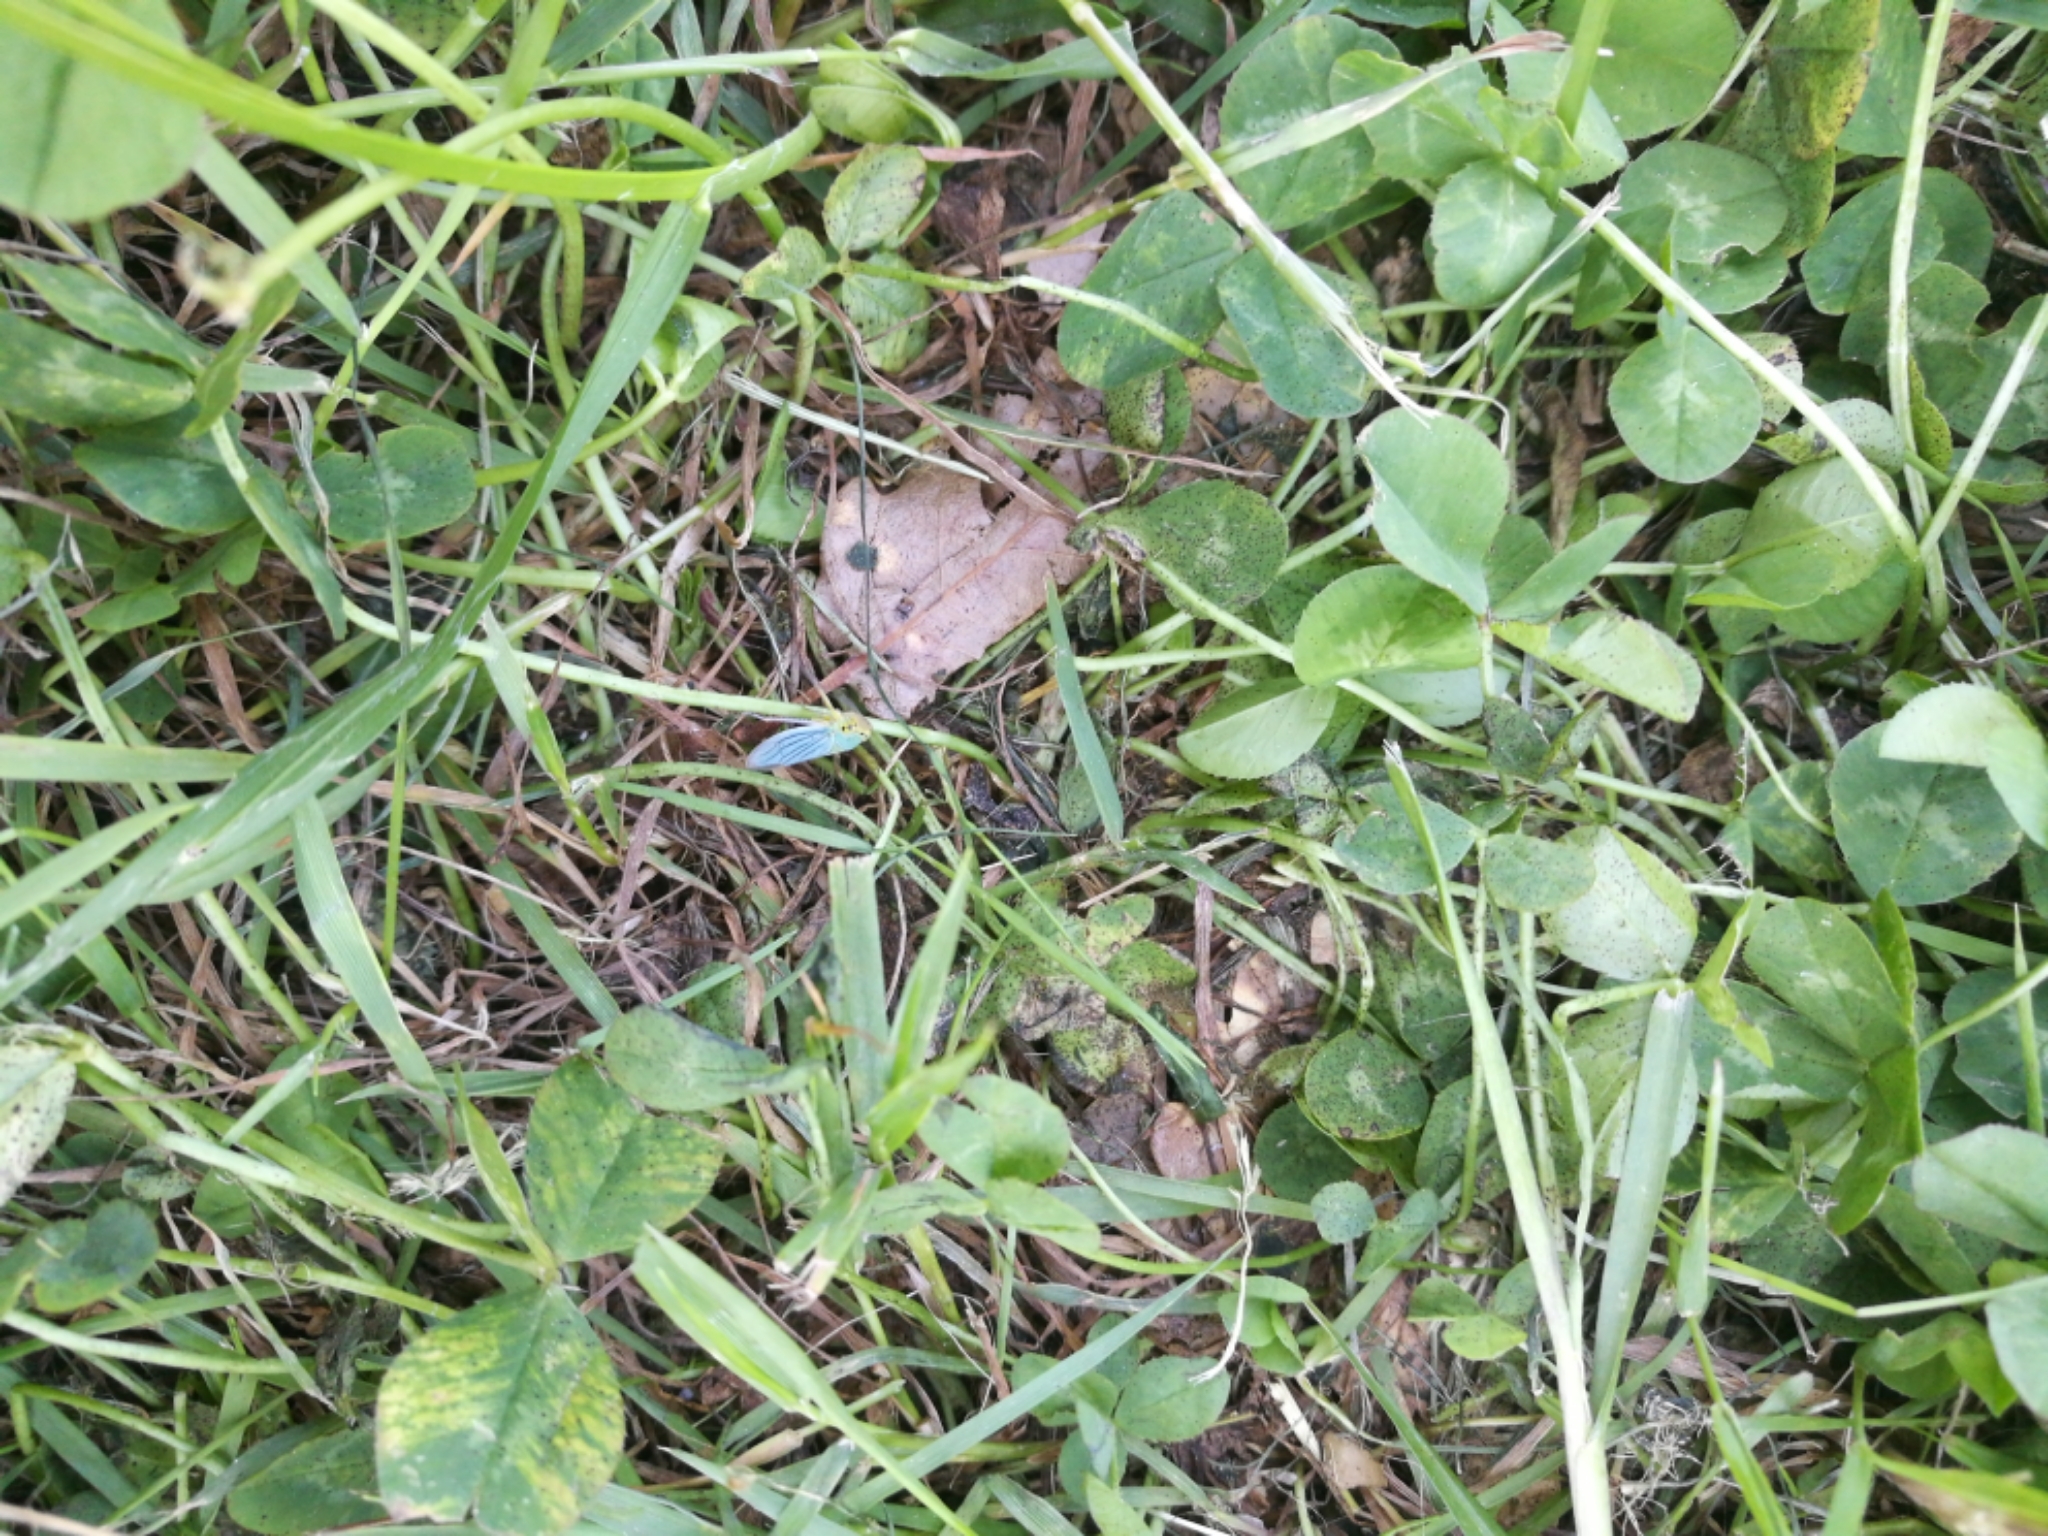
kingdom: Animalia
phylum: Arthropoda
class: Insecta
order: Hemiptera
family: Cicadellidae
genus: Cicadella
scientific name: Cicadella viridis
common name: Leafhopper
